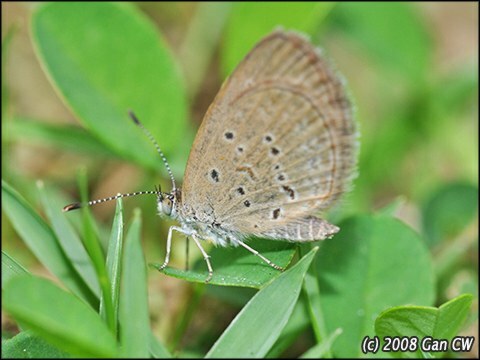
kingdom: Animalia
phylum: Arthropoda
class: Insecta
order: Lepidoptera
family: Lycaenidae
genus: Zizina
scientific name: Zizina otis
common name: Lesser grass blue
